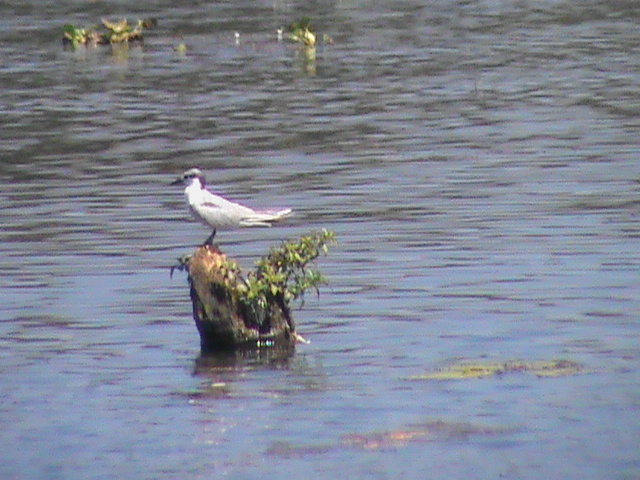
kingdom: Animalia
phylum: Chordata
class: Aves
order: Charadriiformes
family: Laridae
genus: Chlidonias
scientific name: Chlidonias hybrida
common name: Whiskered tern
